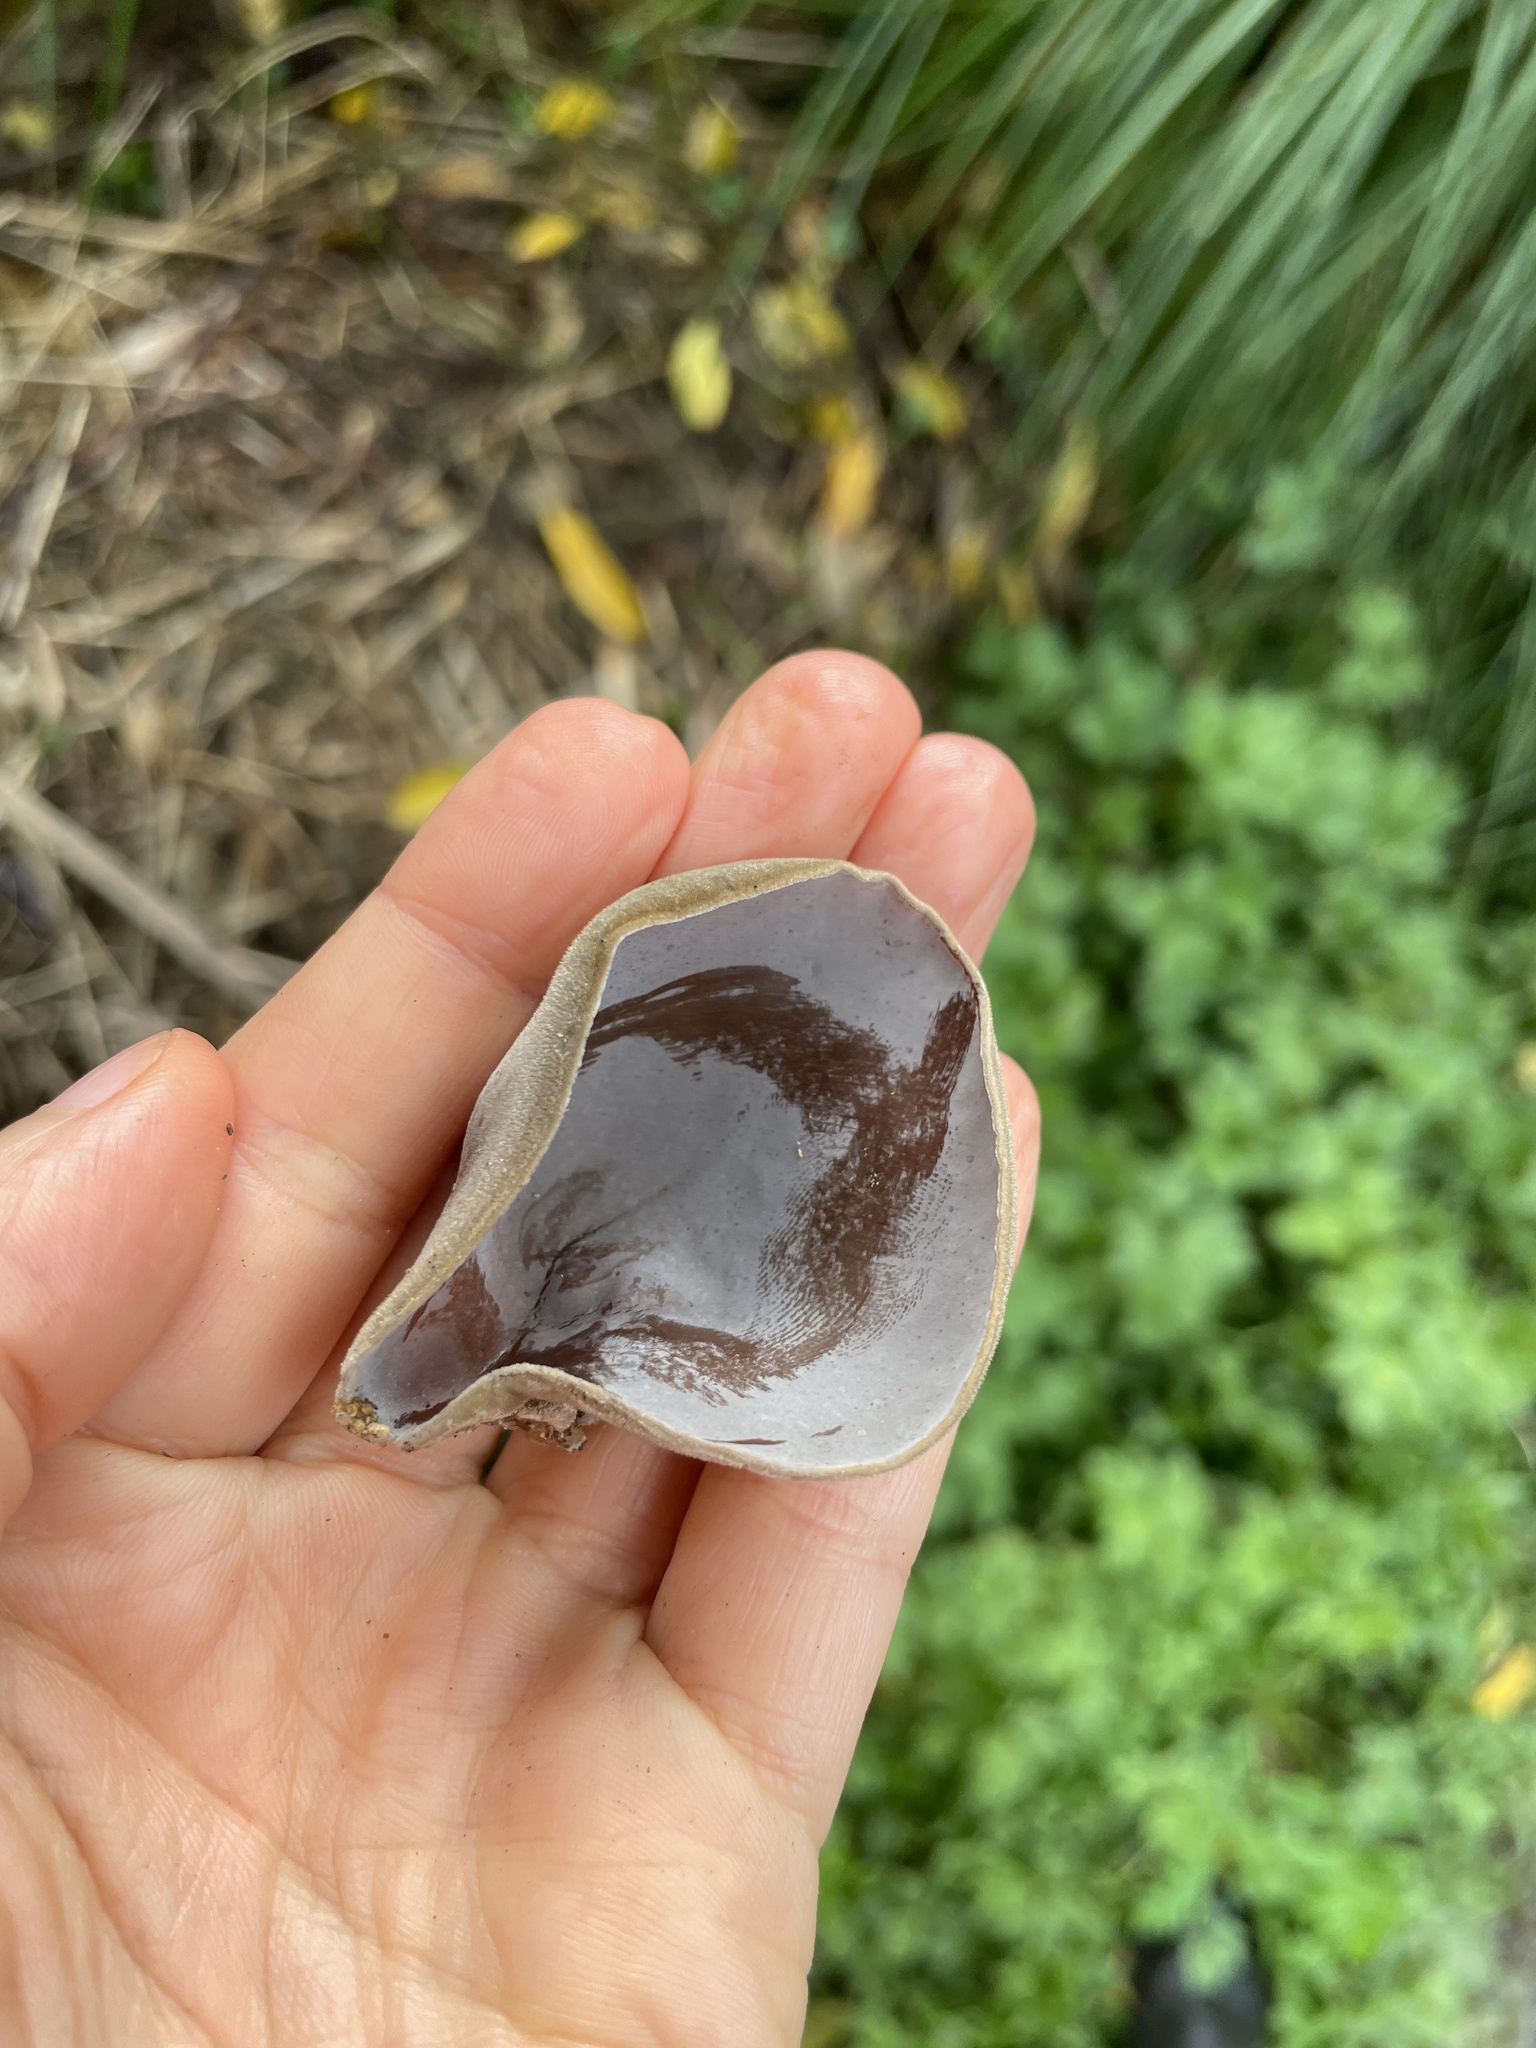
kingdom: Fungi
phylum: Basidiomycota
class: Agaricomycetes
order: Auriculariales
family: Auriculariaceae
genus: Auricularia
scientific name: Auricularia cornea
